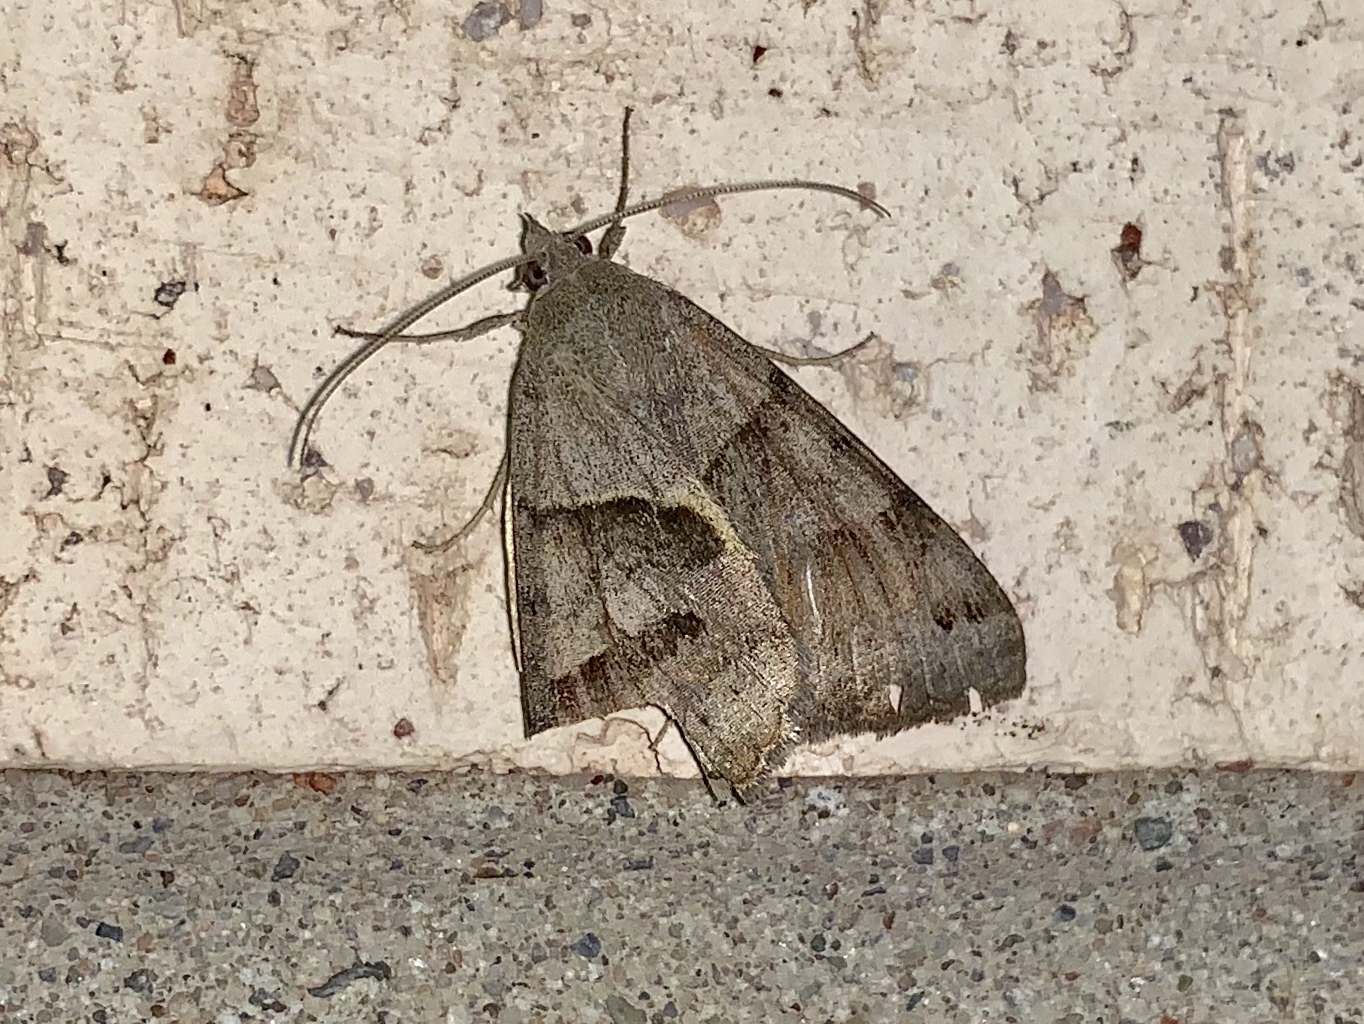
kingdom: Animalia
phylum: Arthropoda
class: Insecta
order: Lepidoptera
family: Erebidae
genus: Caenurgina
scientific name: Caenurgina erechtea
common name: Forage looper moth
